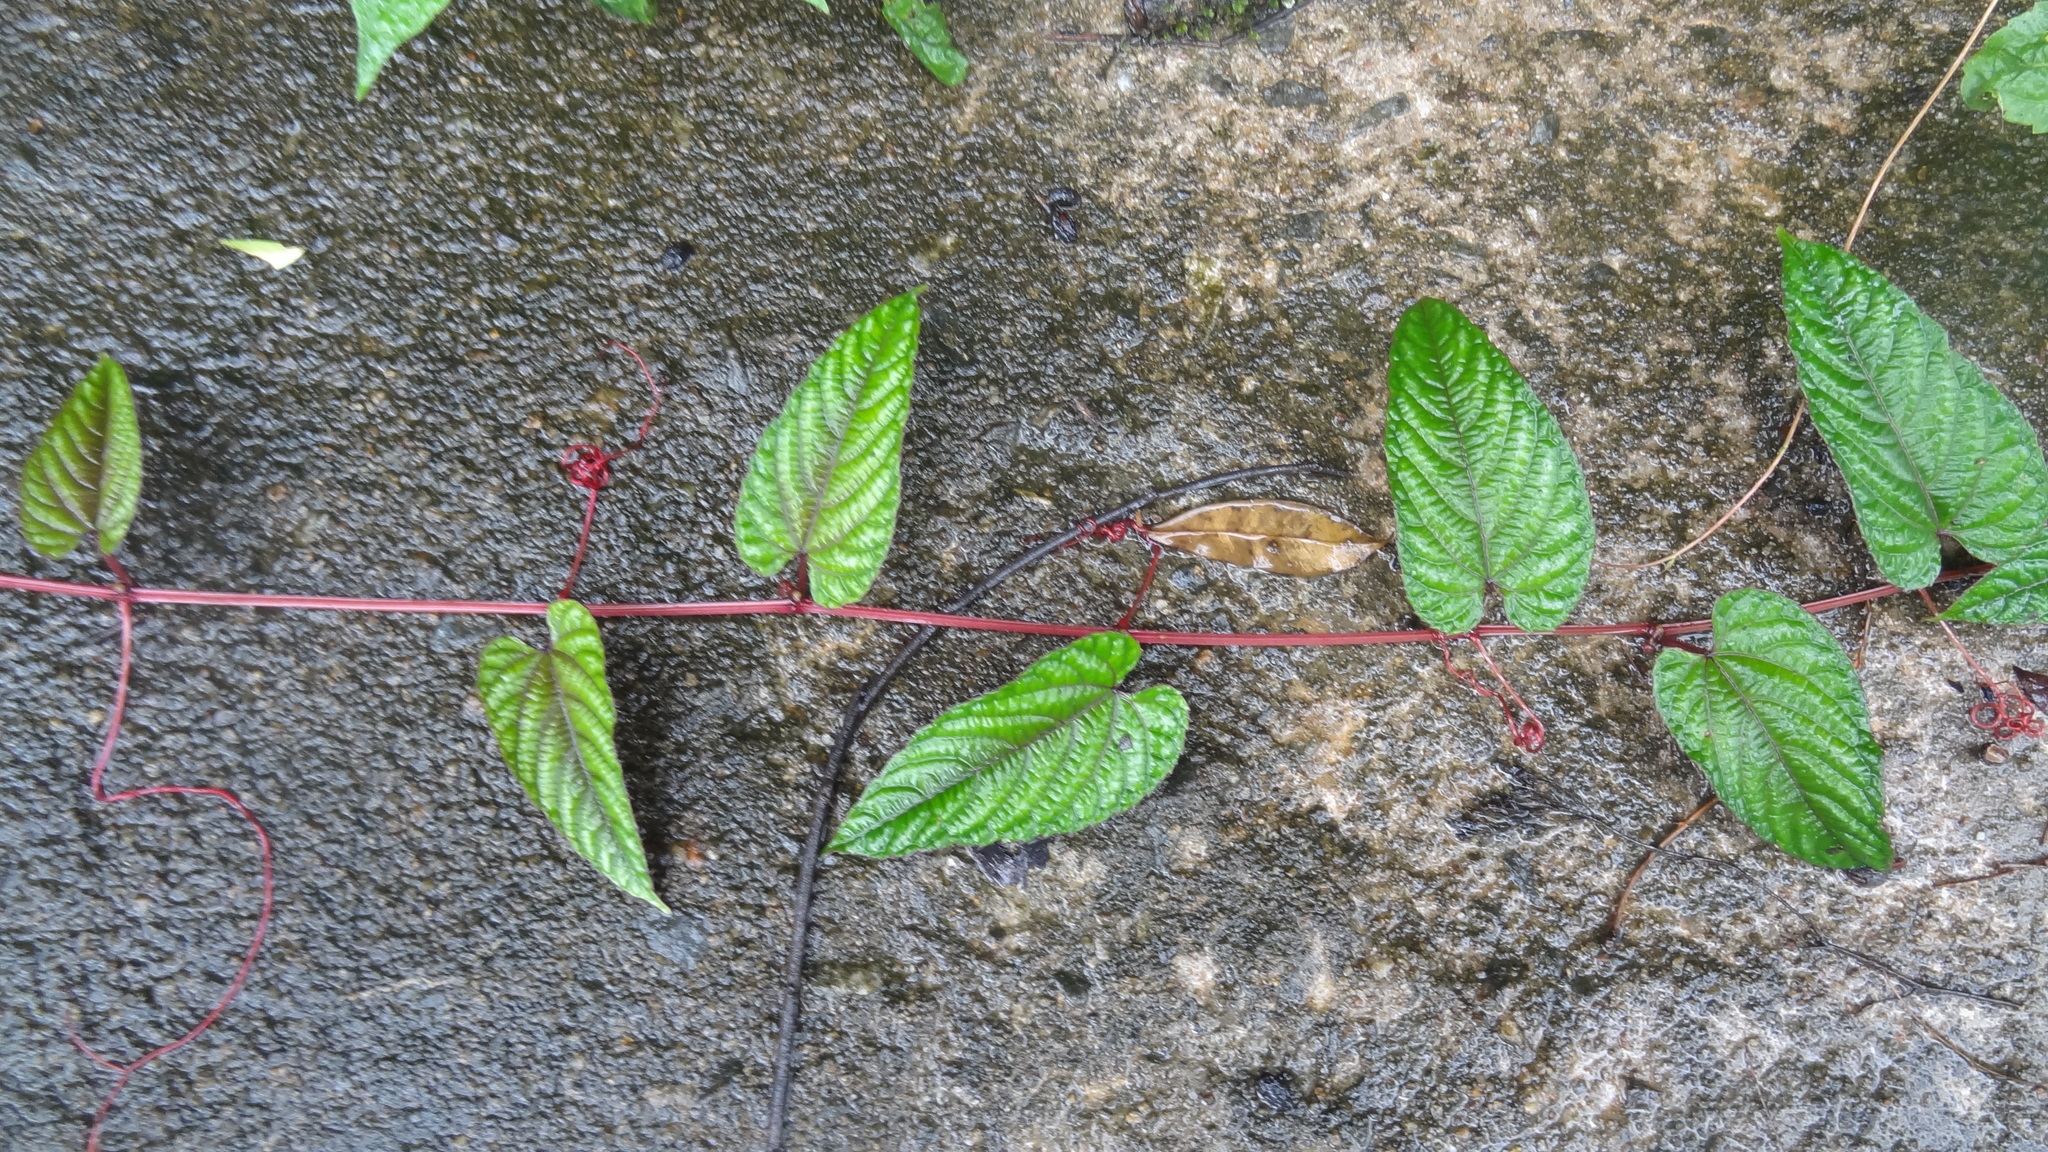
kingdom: Plantae
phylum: Tracheophyta
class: Magnoliopsida
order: Vitales
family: Vitaceae
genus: Cissus
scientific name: Cissus discolor
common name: Climbing-begonia
